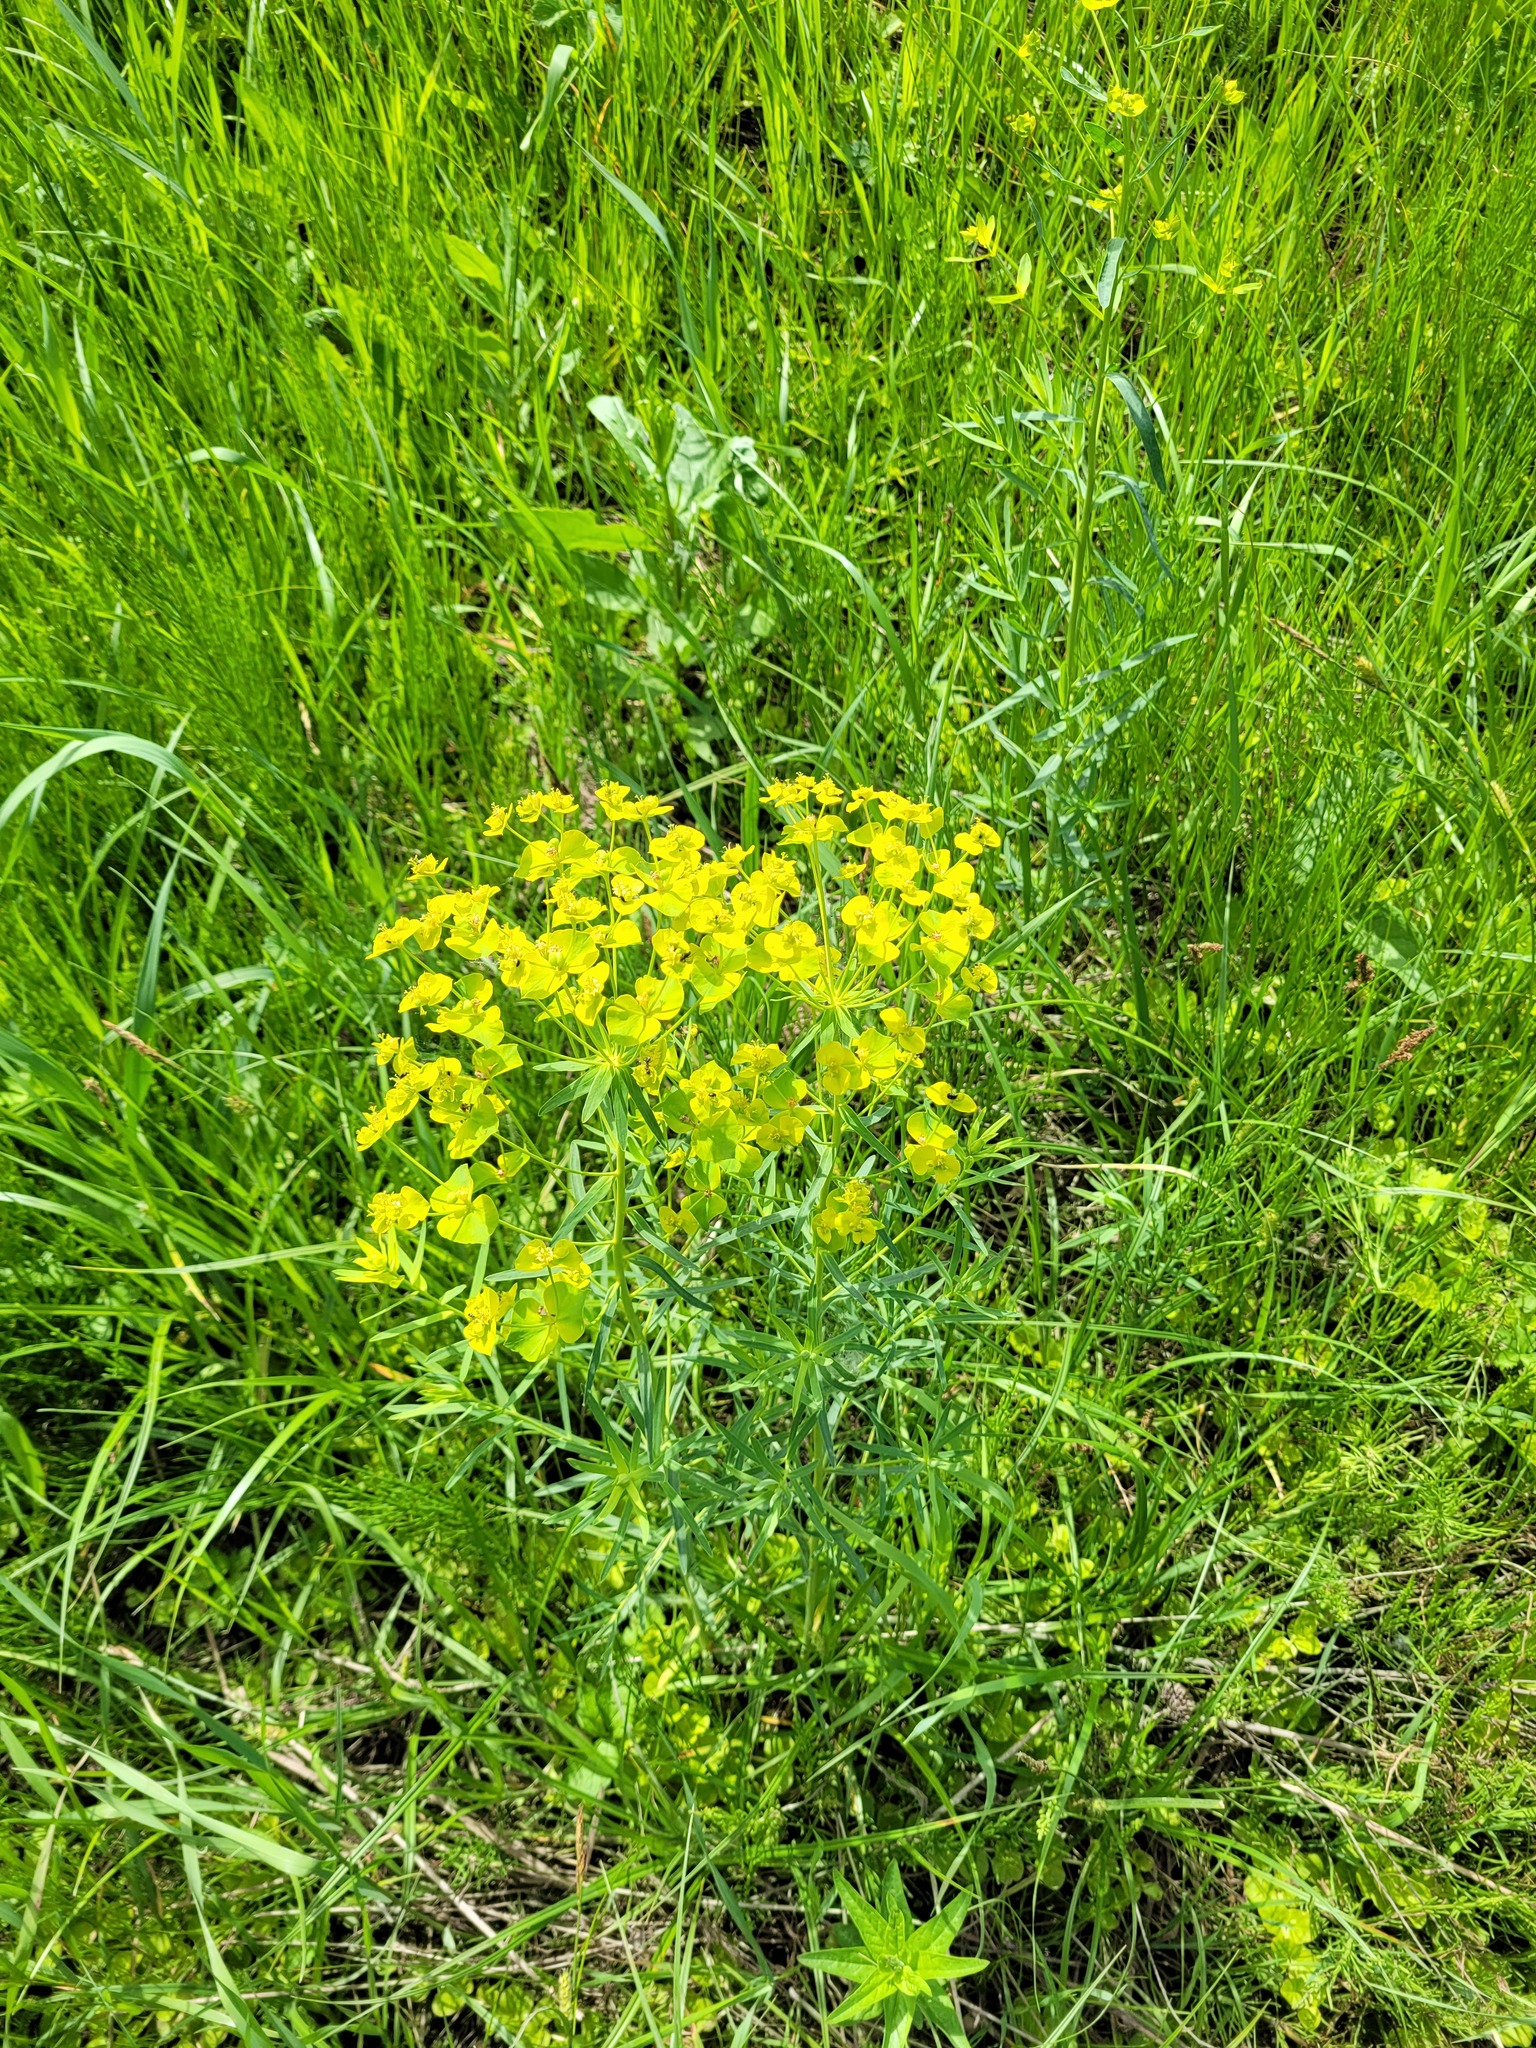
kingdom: Plantae
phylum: Tracheophyta
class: Magnoliopsida
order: Malpighiales
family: Euphorbiaceae
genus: Euphorbia
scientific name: Euphorbia virgata
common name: Leafy spurge
